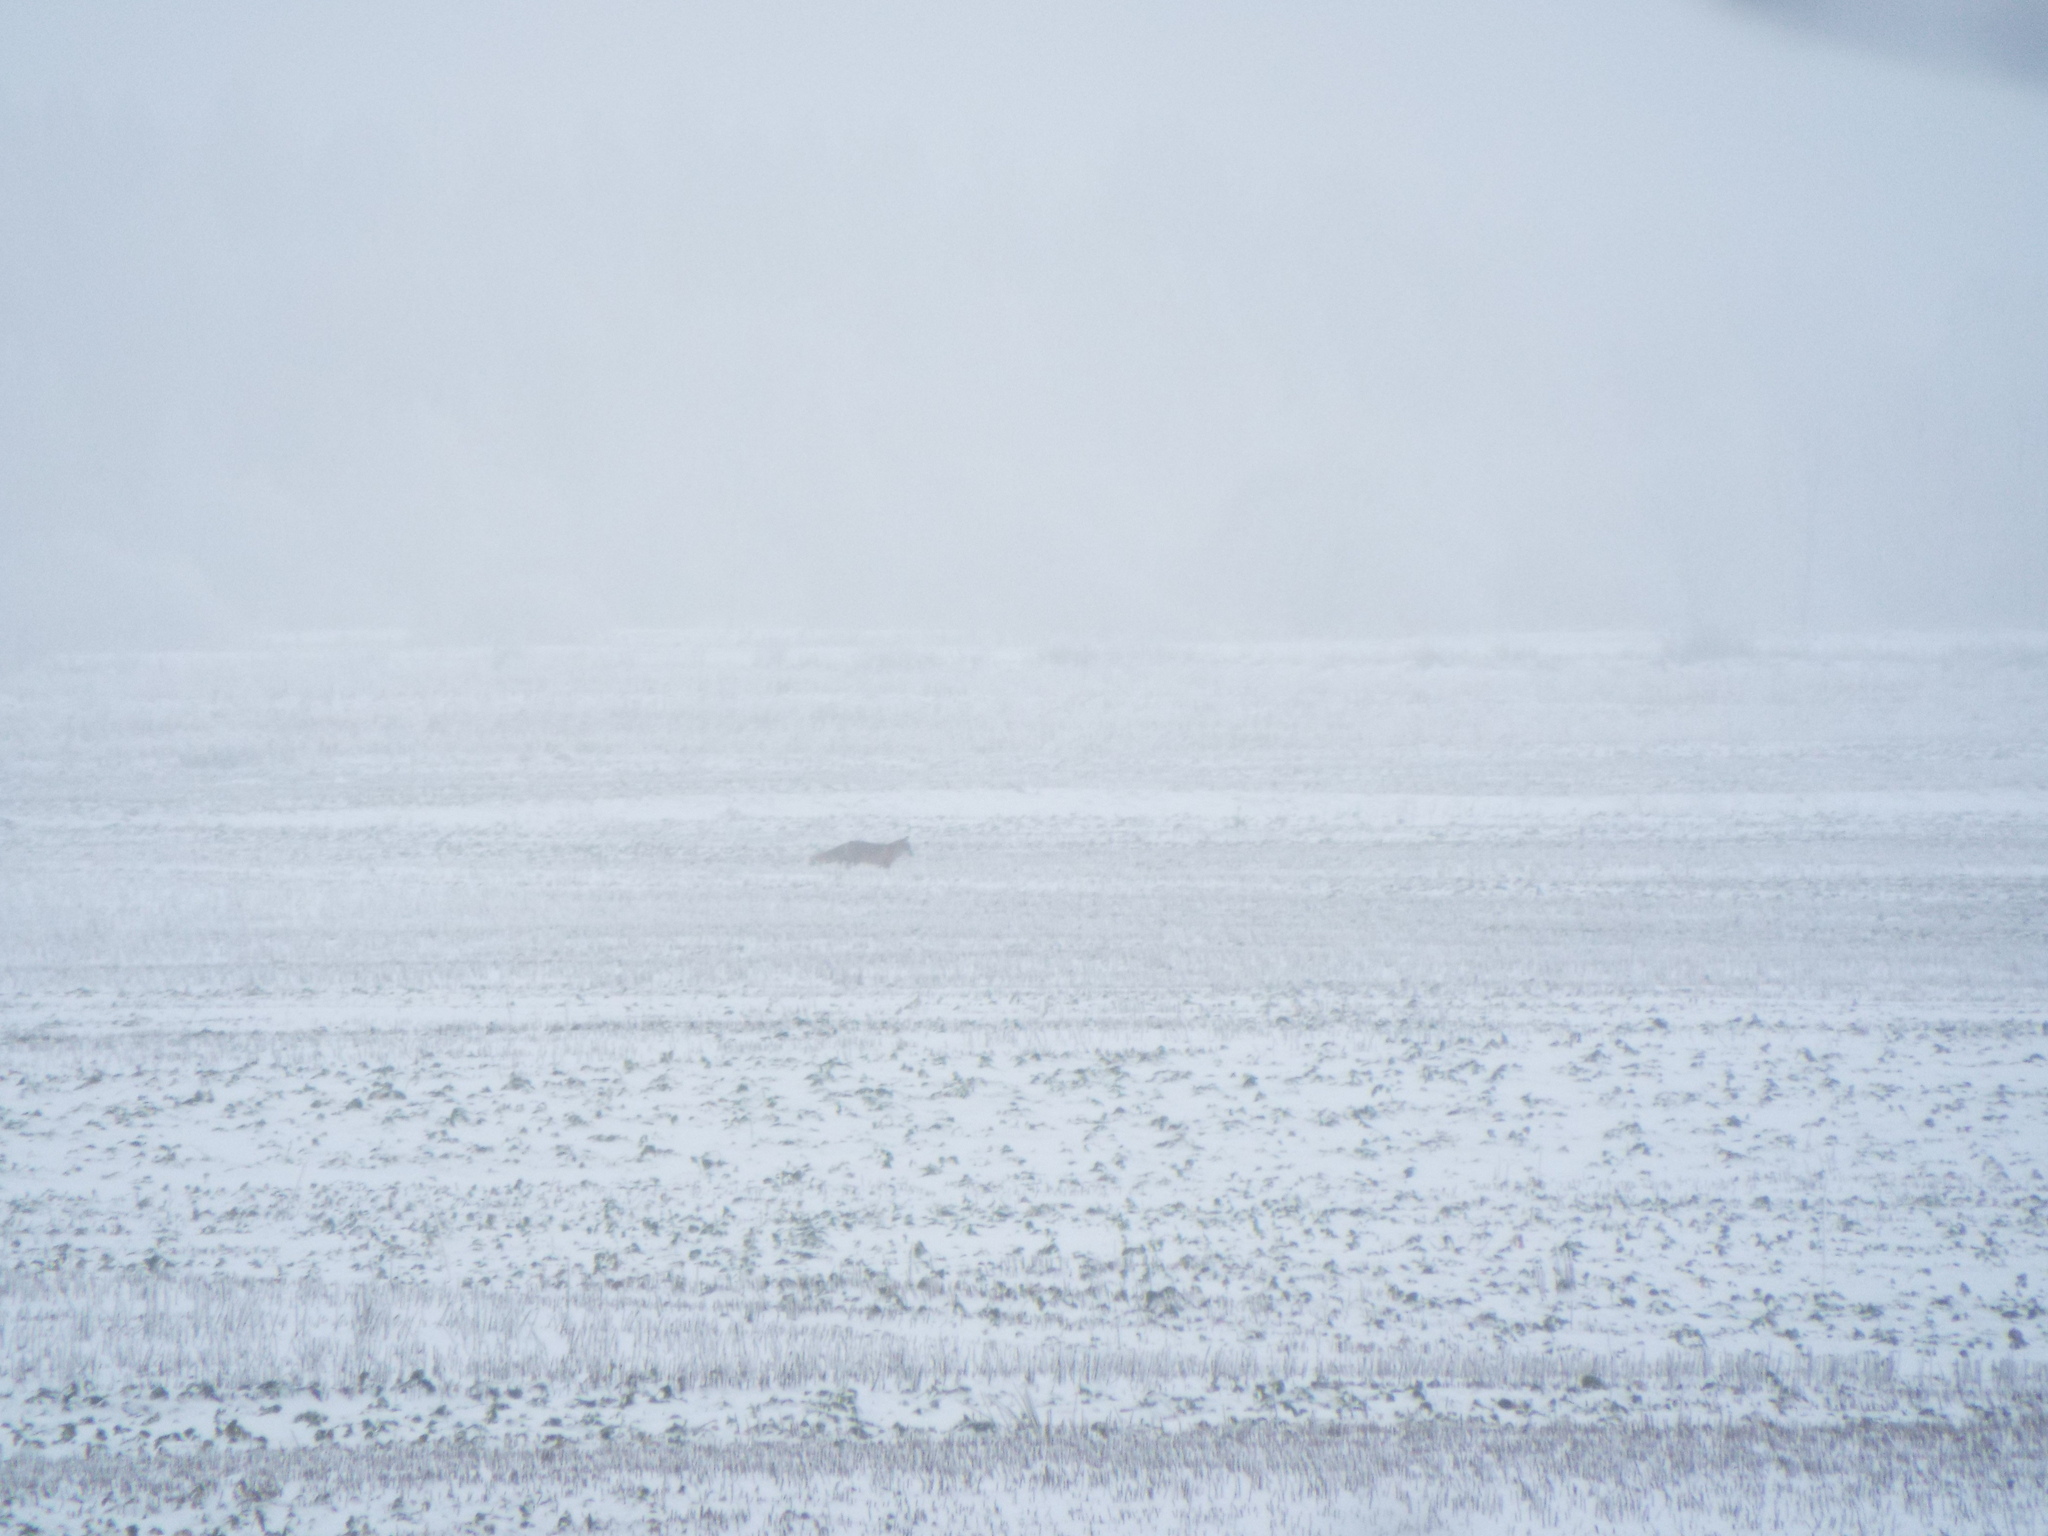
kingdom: Animalia
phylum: Chordata
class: Mammalia
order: Carnivora
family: Canidae
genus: Vulpes
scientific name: Vulpes vulpes
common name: Red fox
